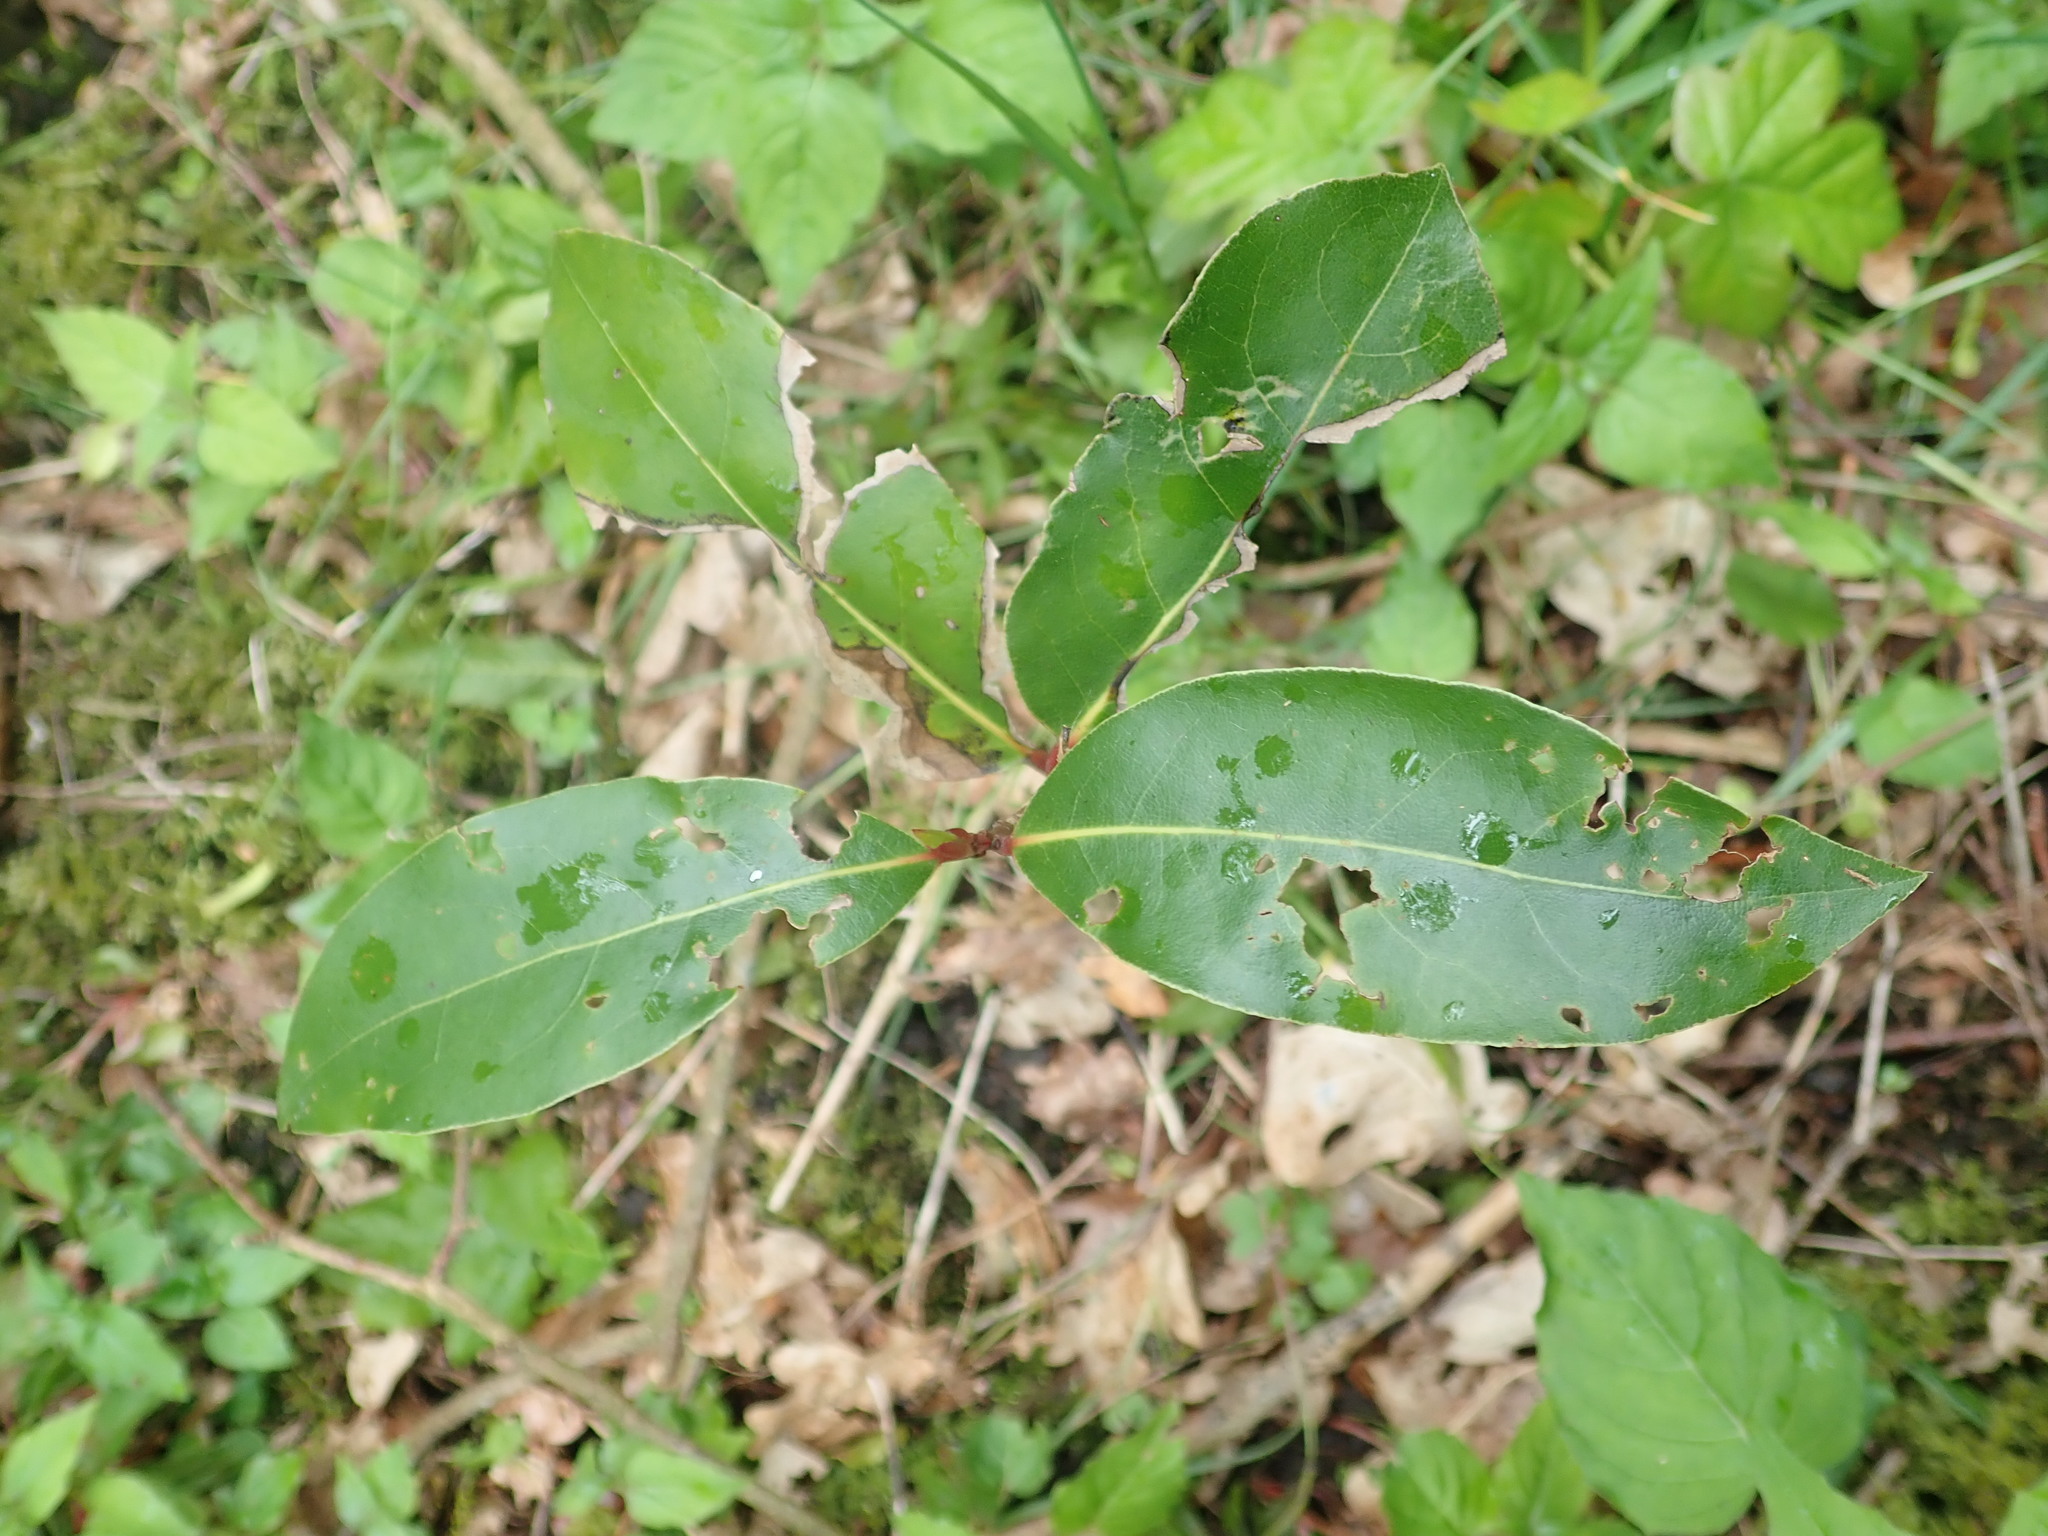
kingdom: Plantae
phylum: Tracheophyta
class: Magnoliopsida
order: Laurales
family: Lauraceae
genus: Laurus
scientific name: Laurus nobilis
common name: Bay
